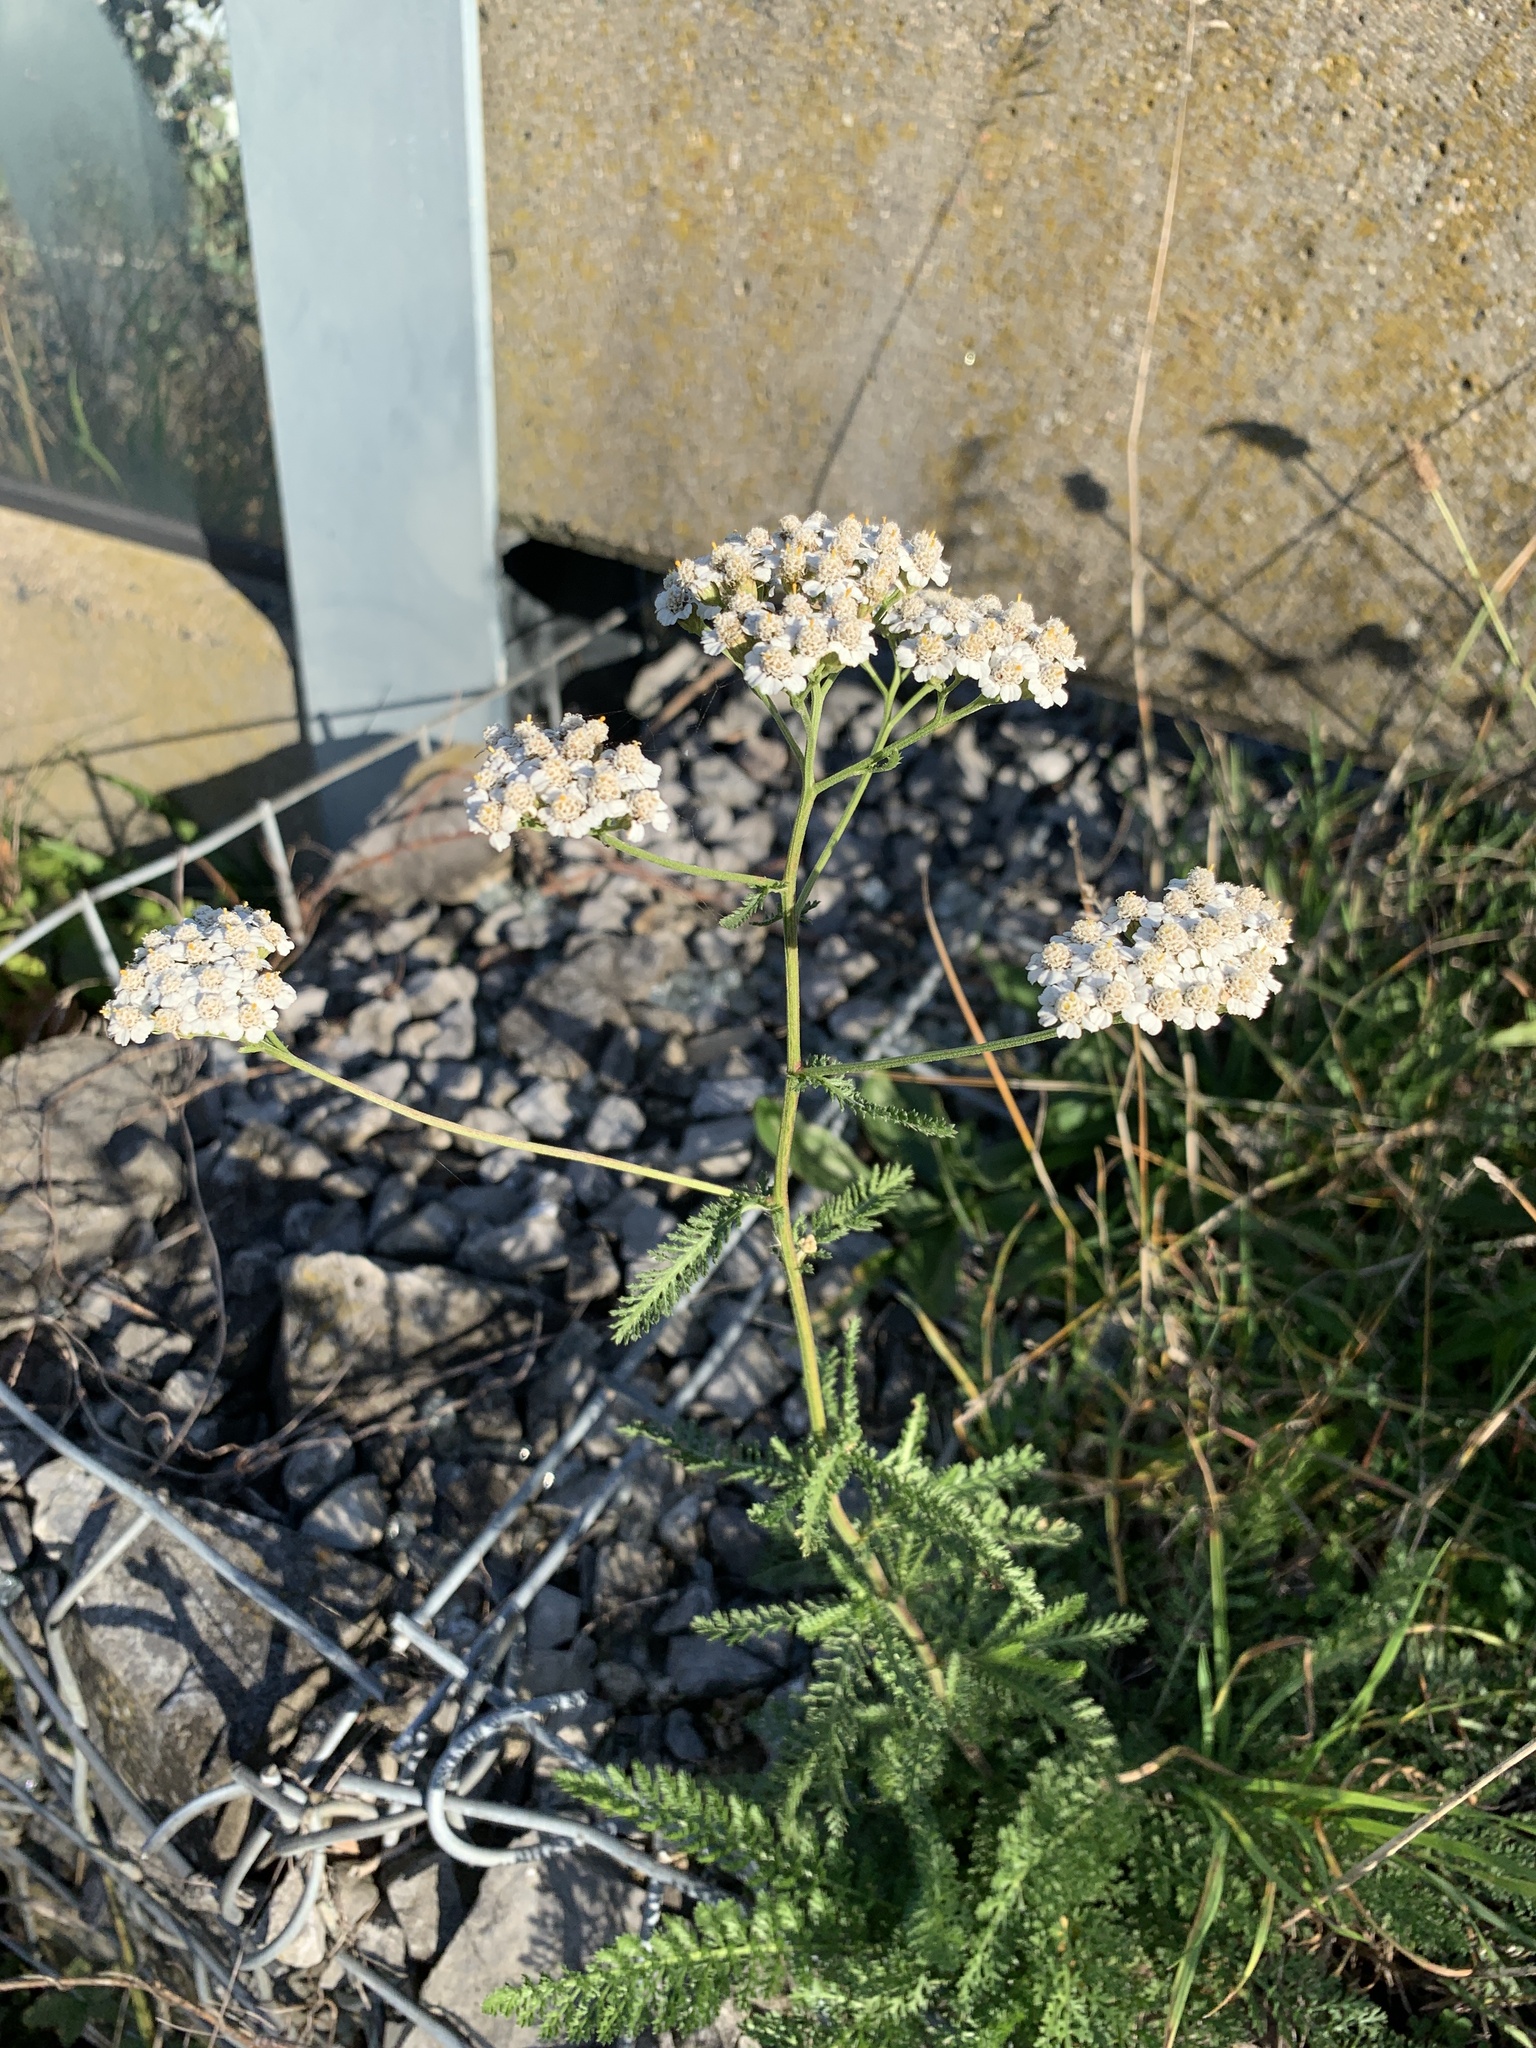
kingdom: Plantae
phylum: Tracheophyta
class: Magnoliopsida
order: Asterales
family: Asteraceae
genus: Achillea
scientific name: Achillea millefolium
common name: Yarrow
